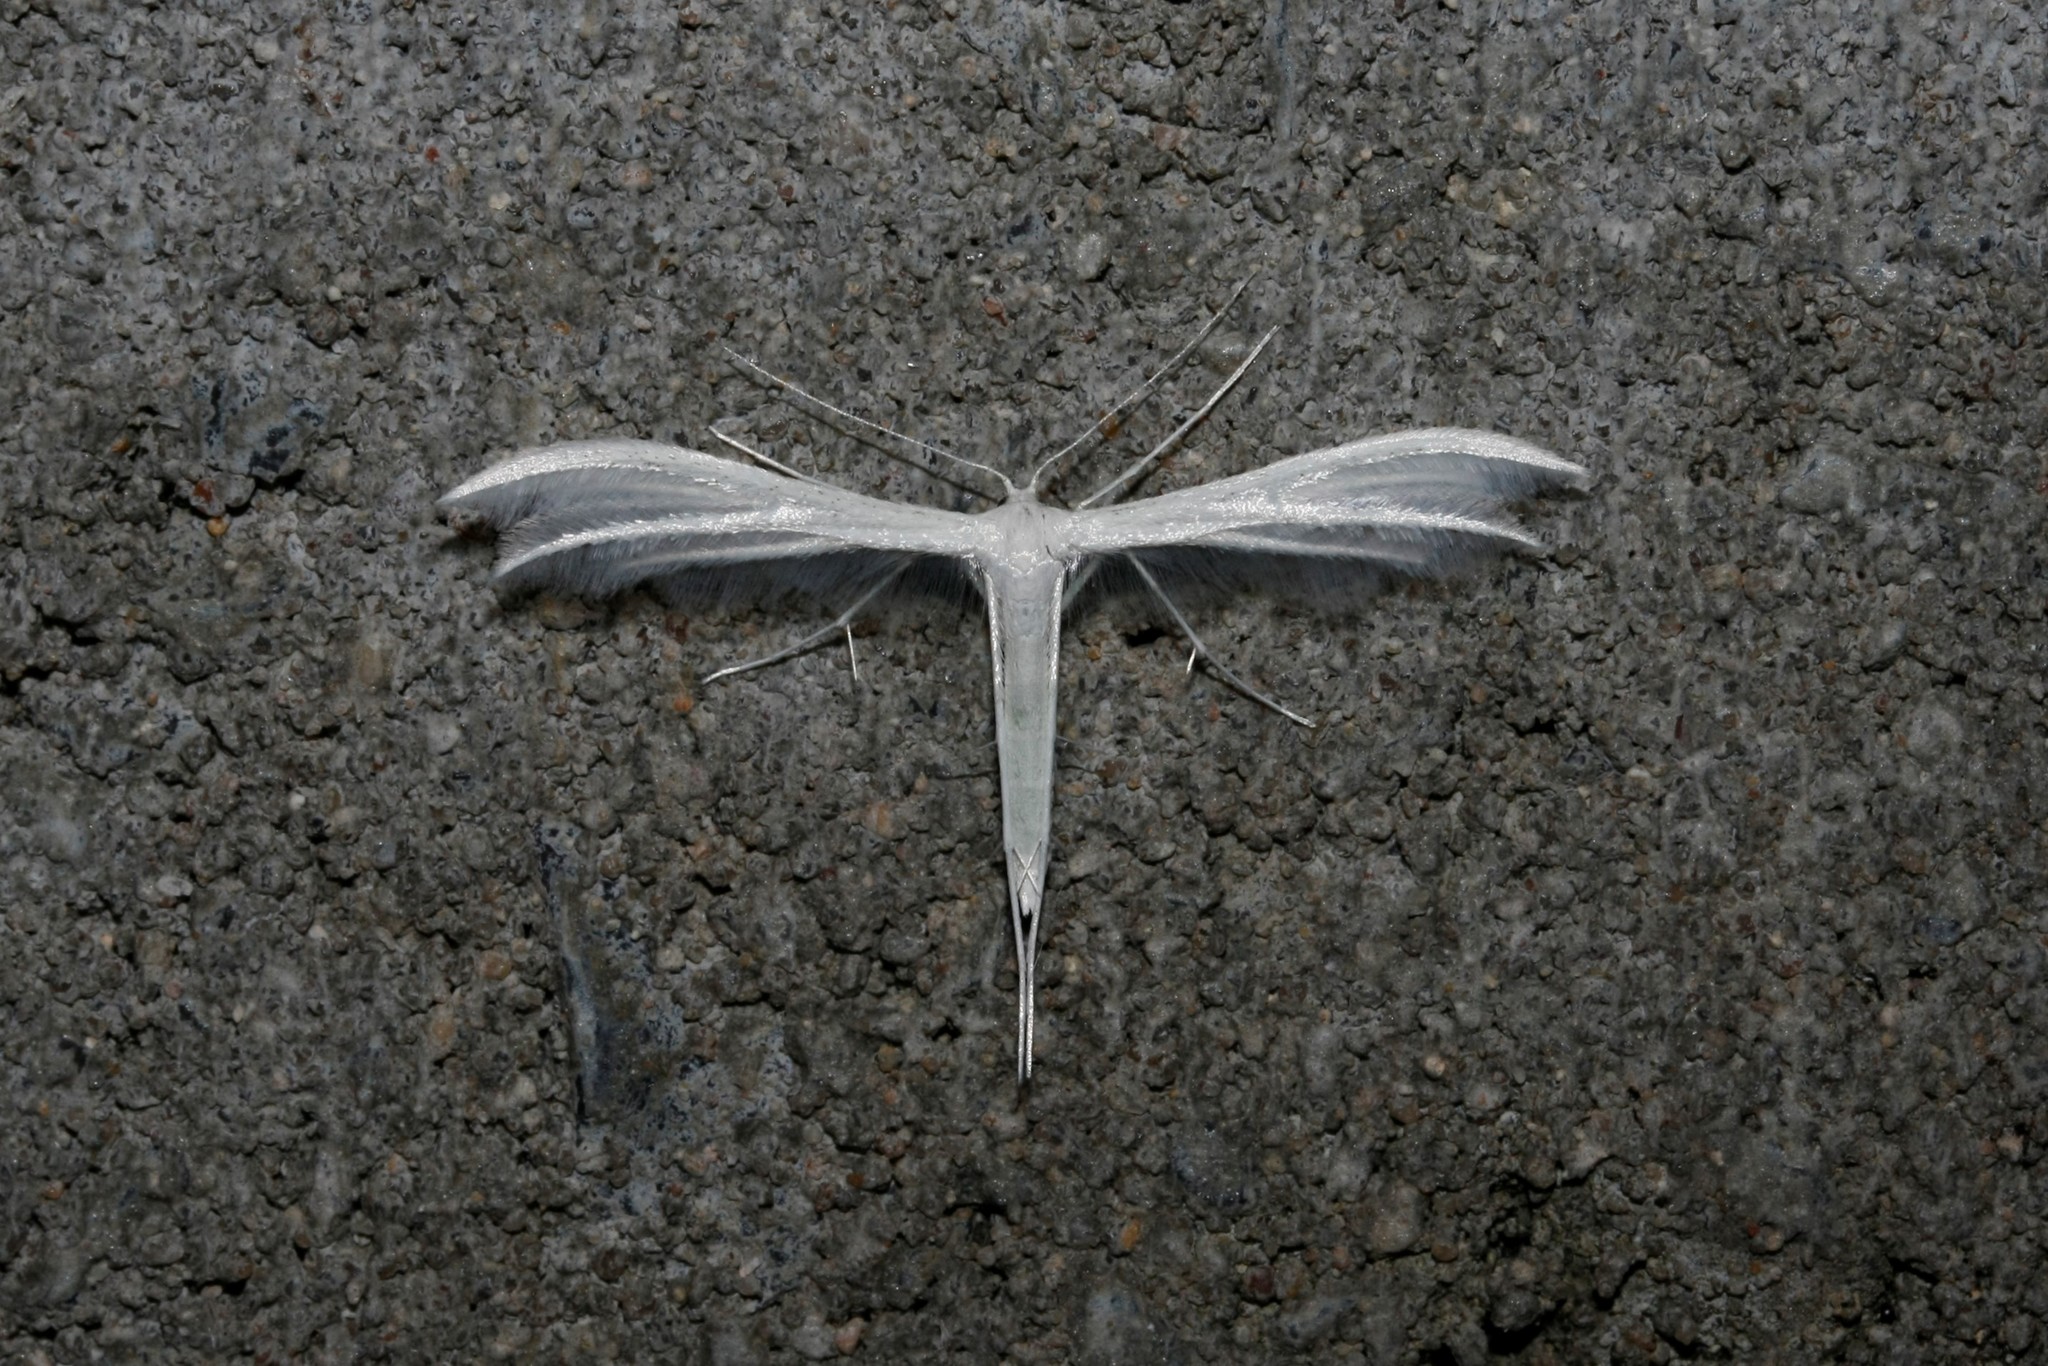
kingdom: Animalia
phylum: Arthropoda
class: Insecta
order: Lepidoptera
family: Pterophoridae
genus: Pterophorus
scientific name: Pterophorus pentadactyla
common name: White plume moth
